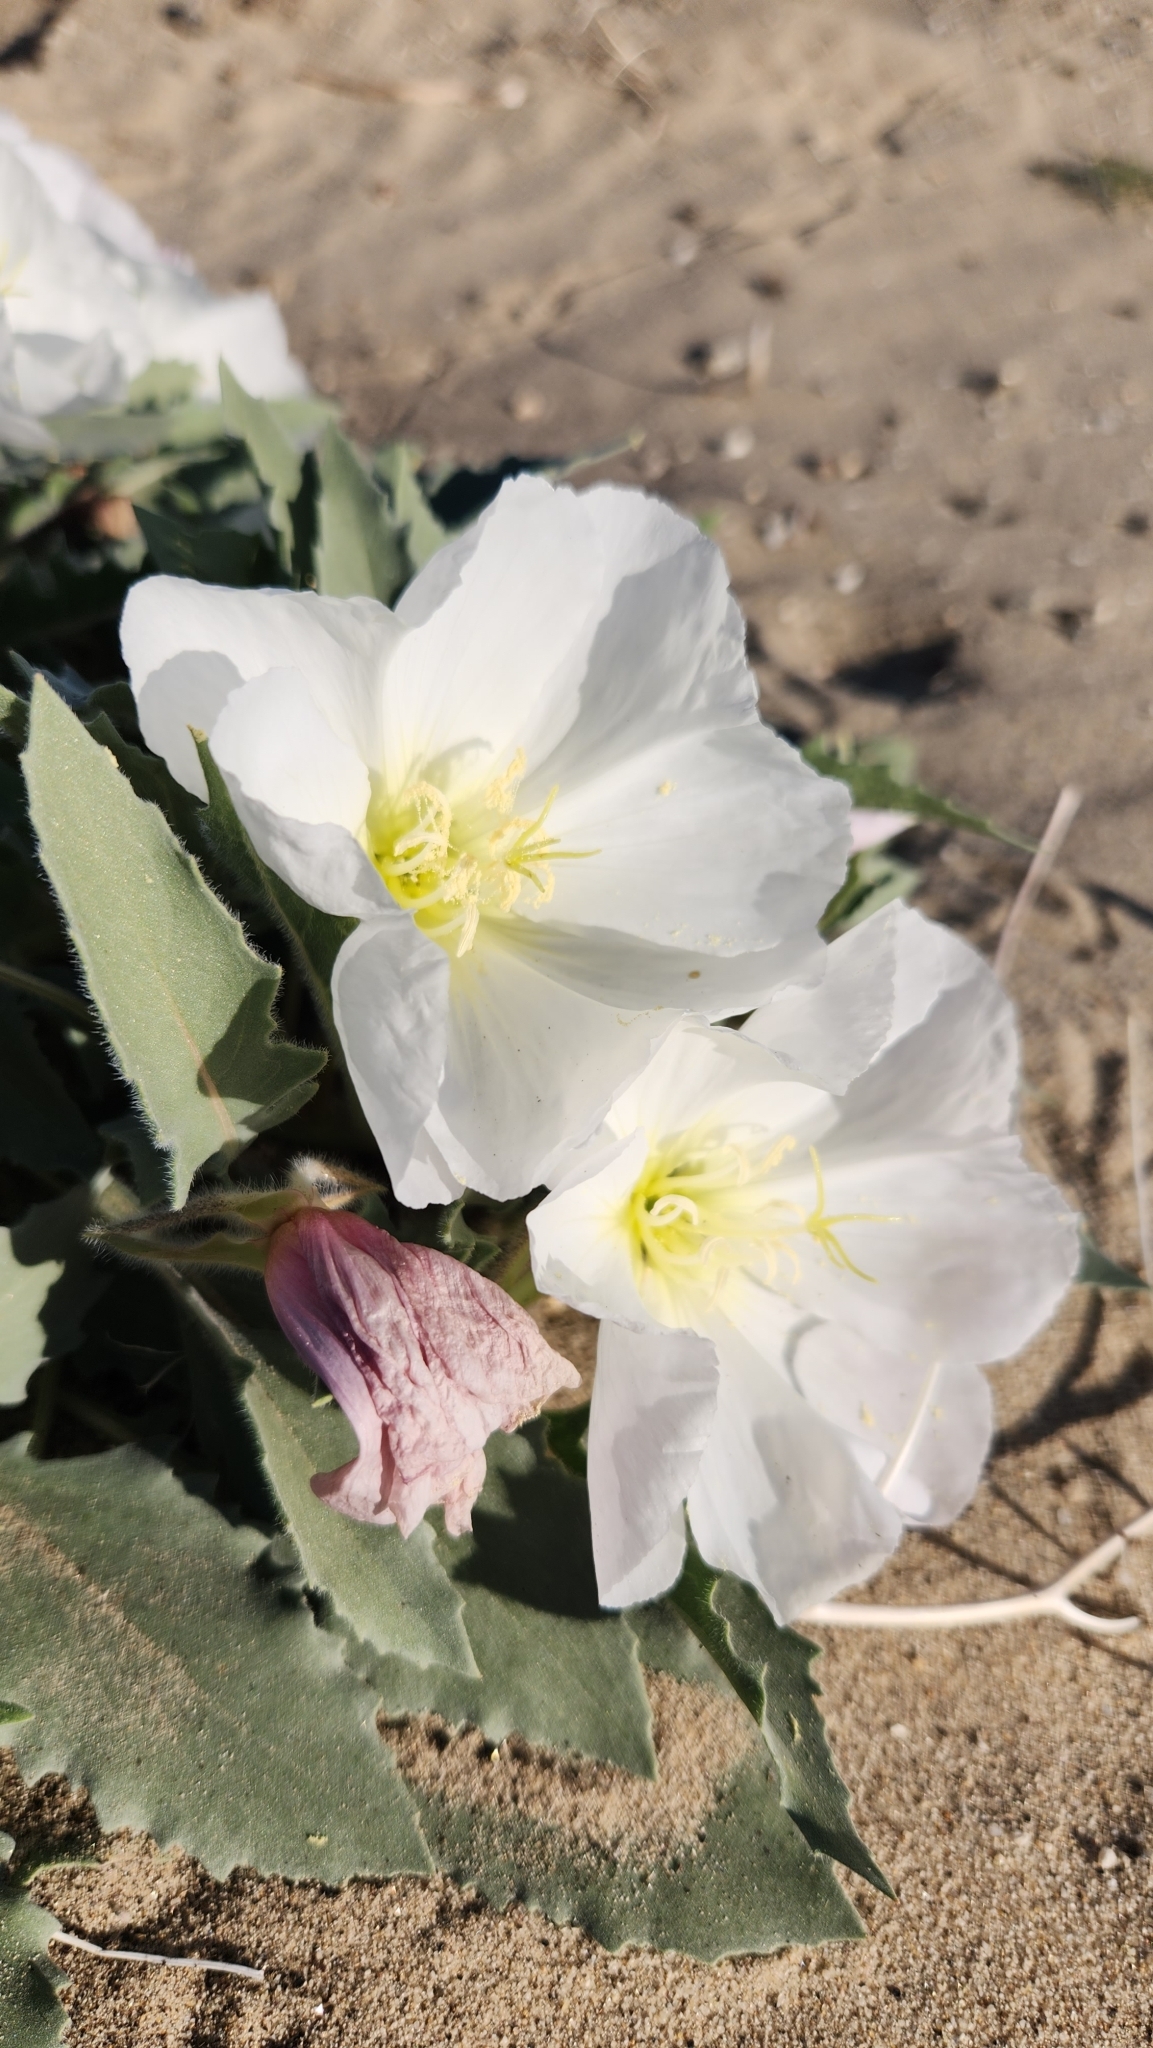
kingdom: Plantae
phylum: Tracheophyta
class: Magnoliopsida
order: Myrtales
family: Onagraceae
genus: Oenothera
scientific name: Oenothera deltoides
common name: Basket evening-primrose
